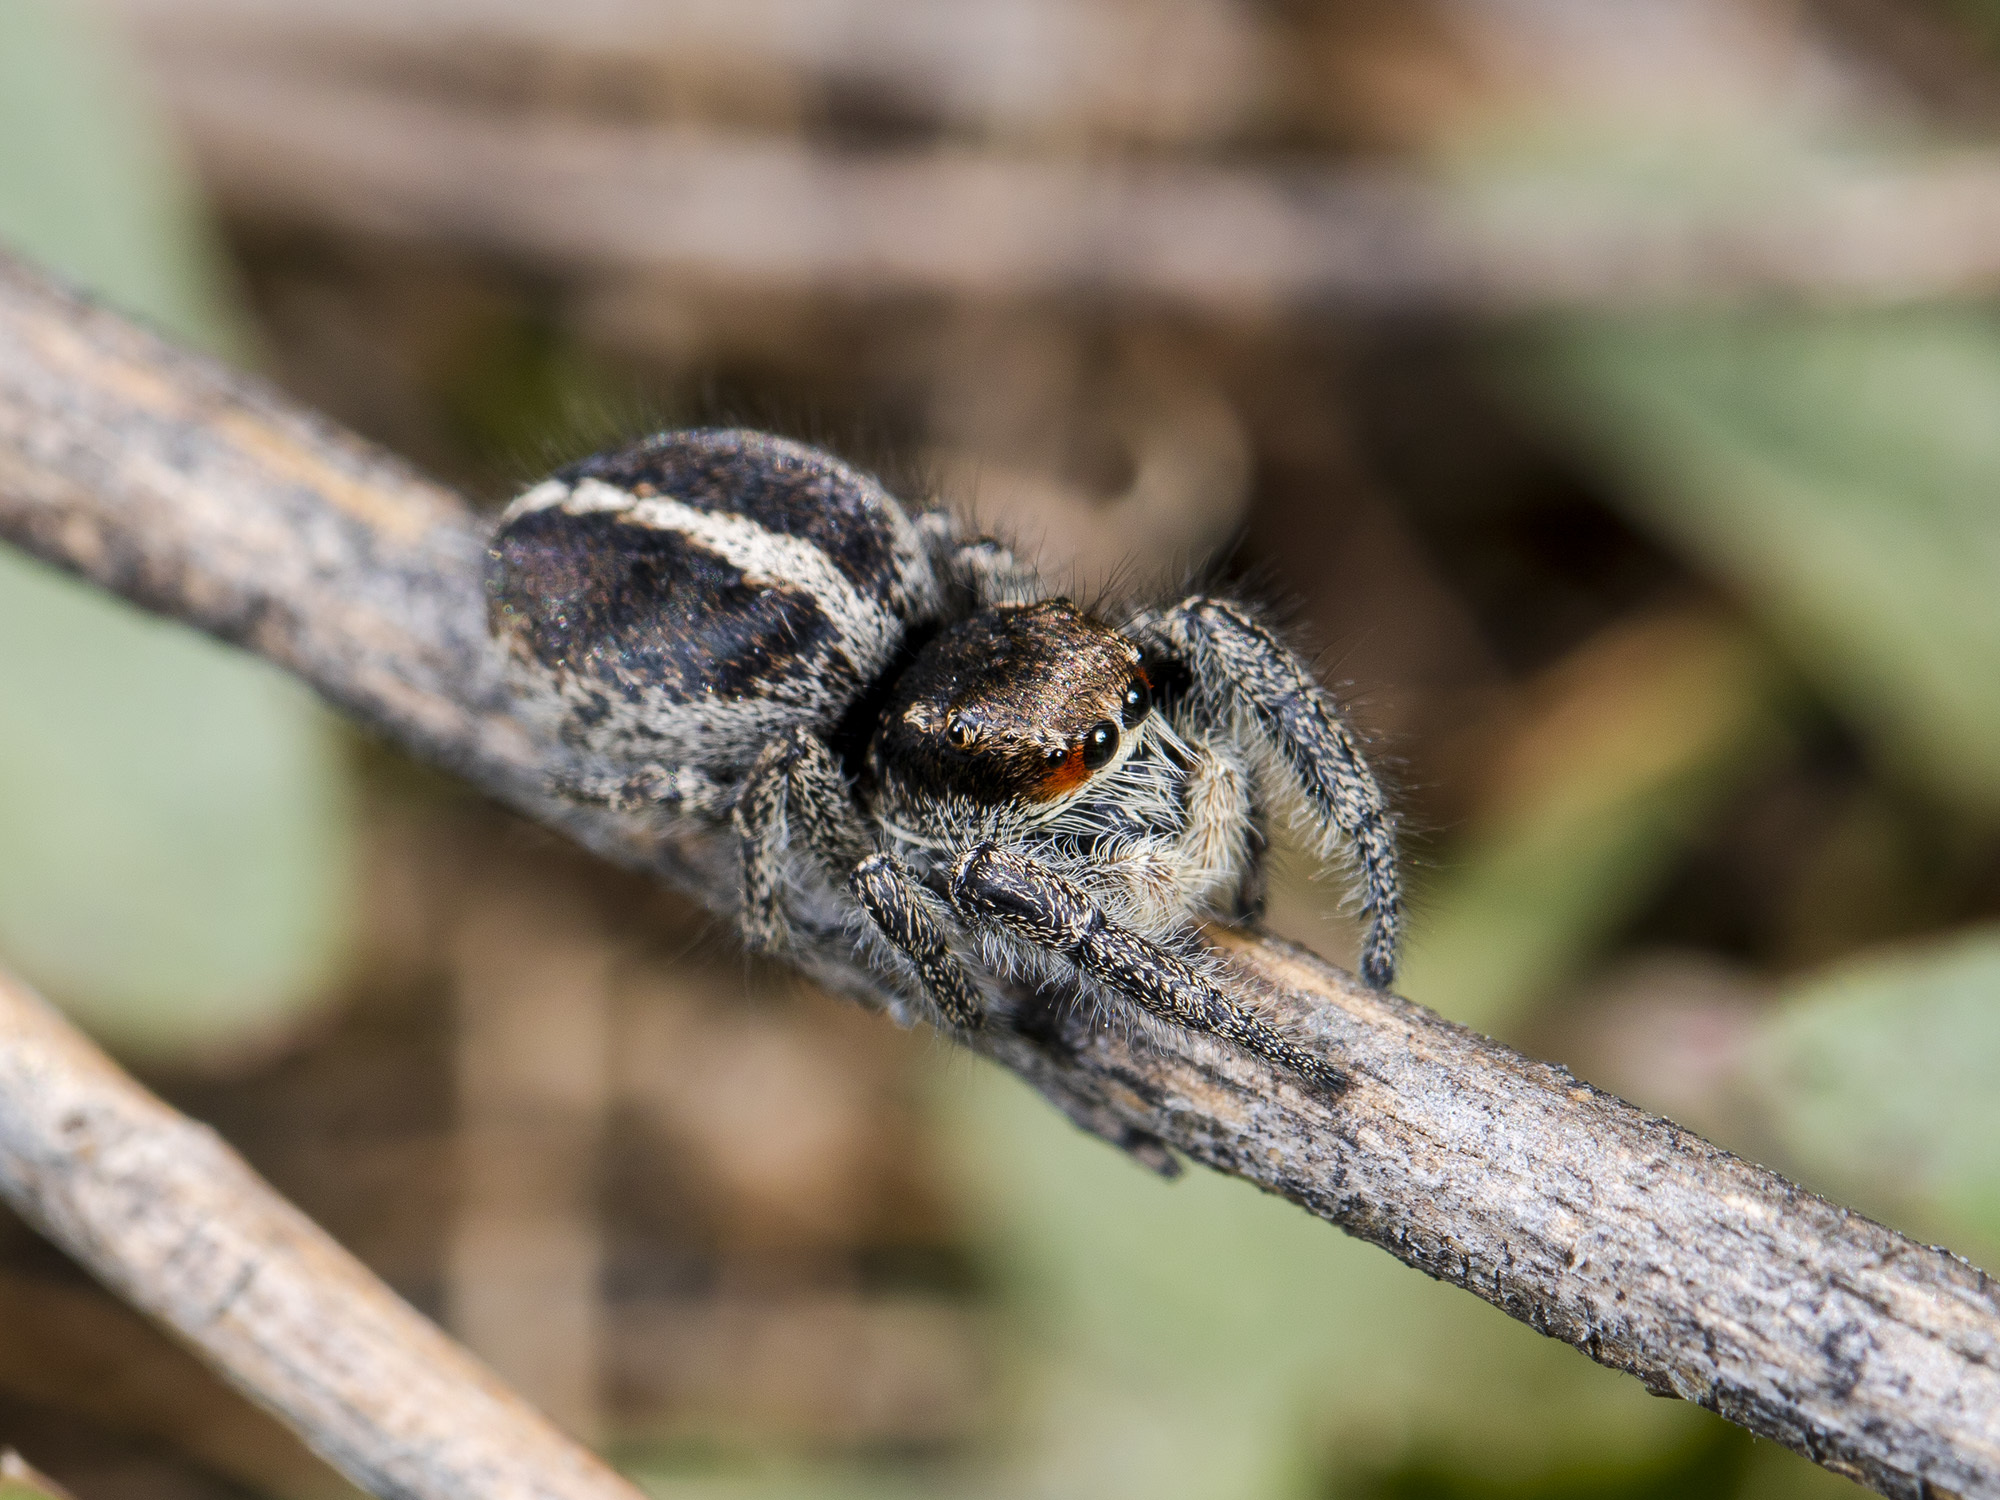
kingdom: Animalia
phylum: Arthropoda
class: Arachnida
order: Araneae
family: Salticidae
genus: Pellenes
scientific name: Pellenes seriatus
